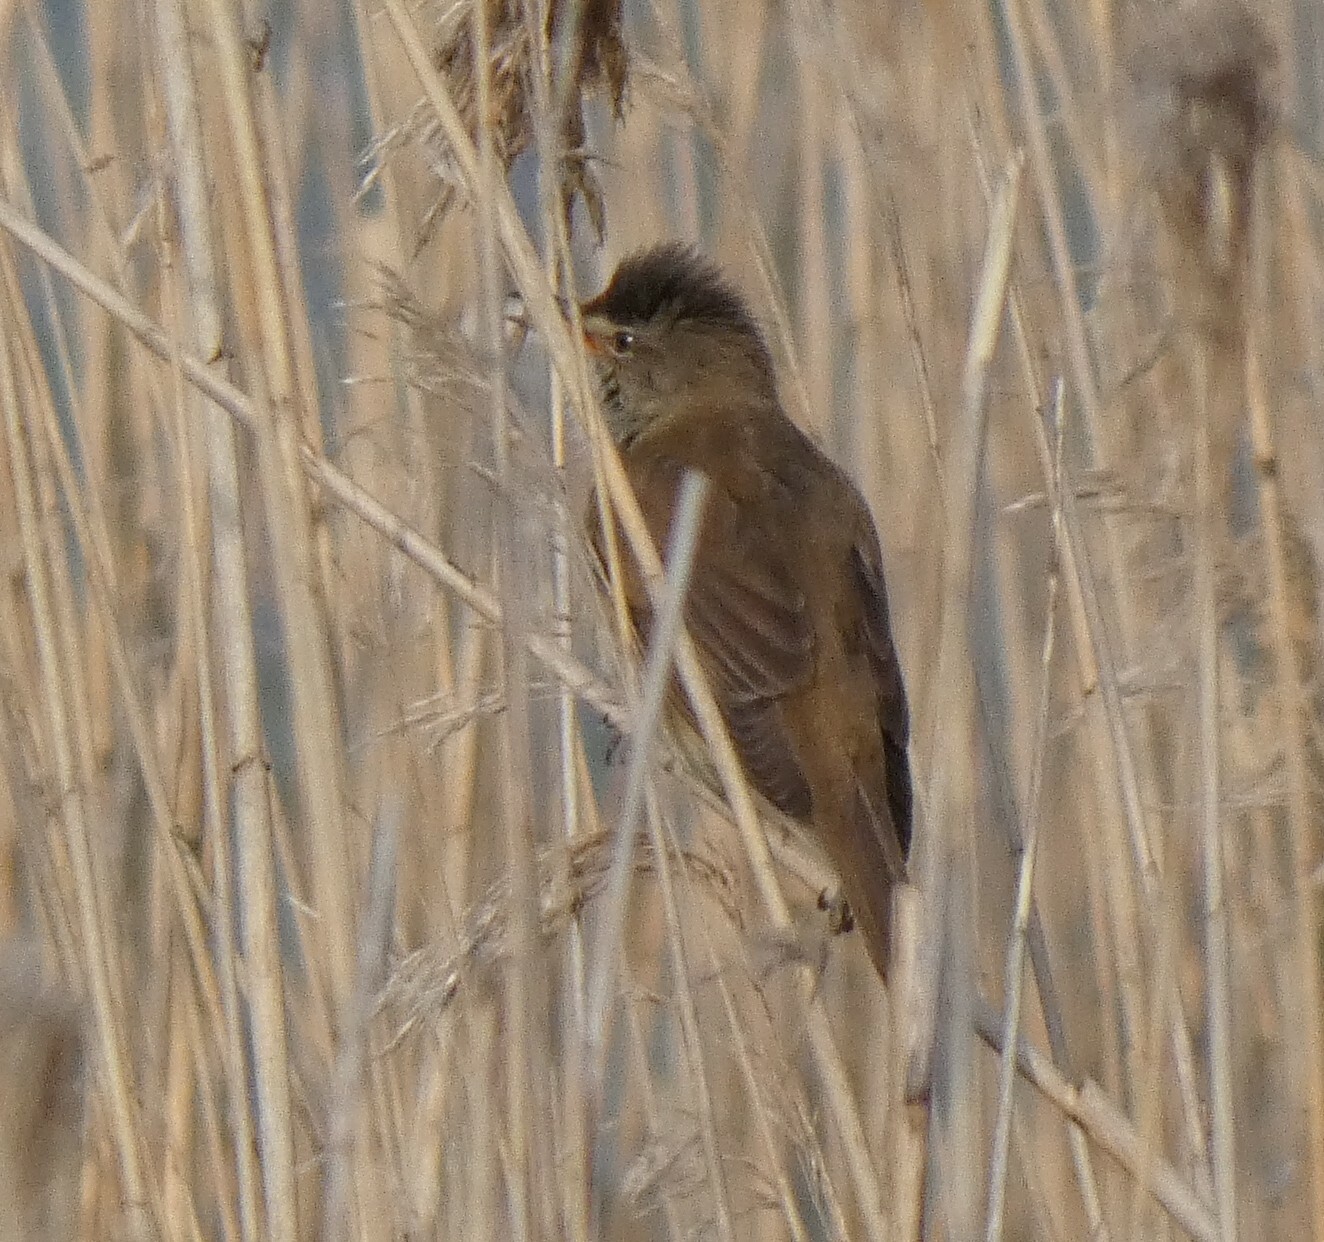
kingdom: Animalia
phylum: Chordata
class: Aves
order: Passeriformes
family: Acrocephalidae
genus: Acrocephalus
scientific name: Acrocephalus arundinaceus
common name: Great reed warbler
